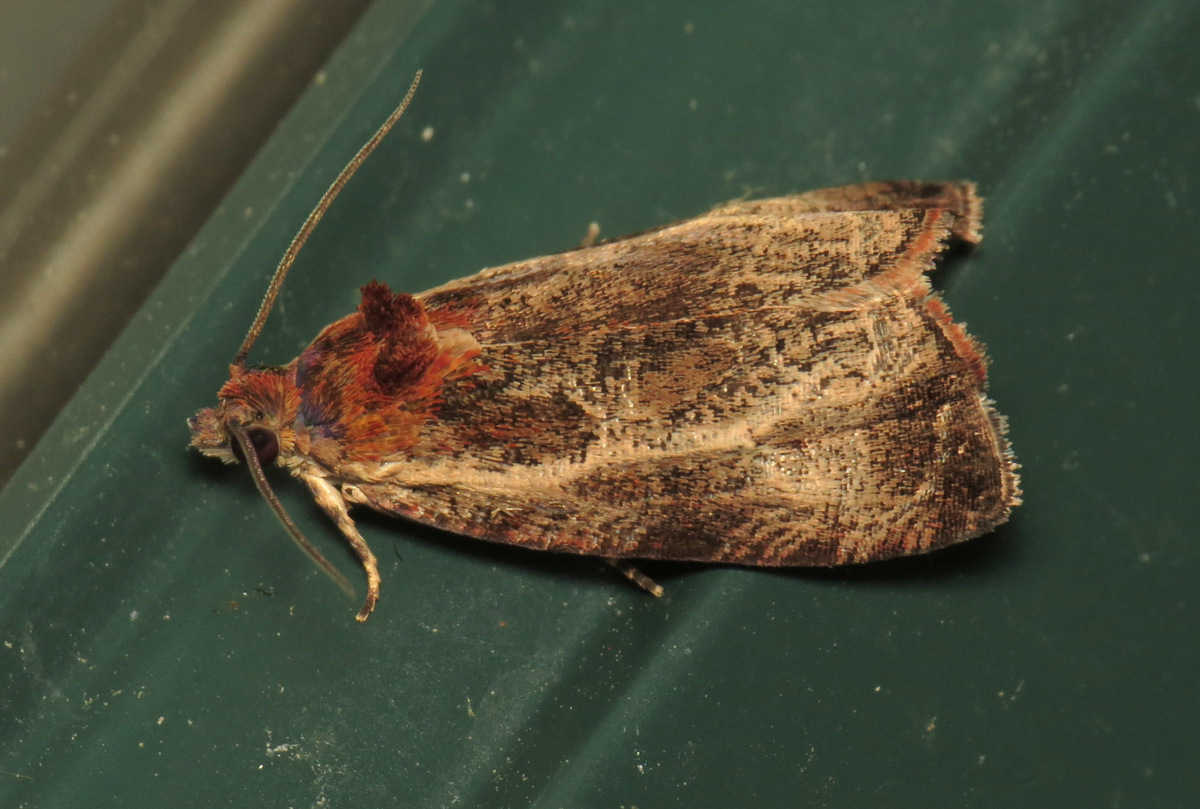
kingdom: Animalia
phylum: Arthropoda
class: Insecta
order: Lepidoptera
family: Tortricidae
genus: Olethreutes
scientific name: Olethreutes inornatana
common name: Inornate olethreutes moth
